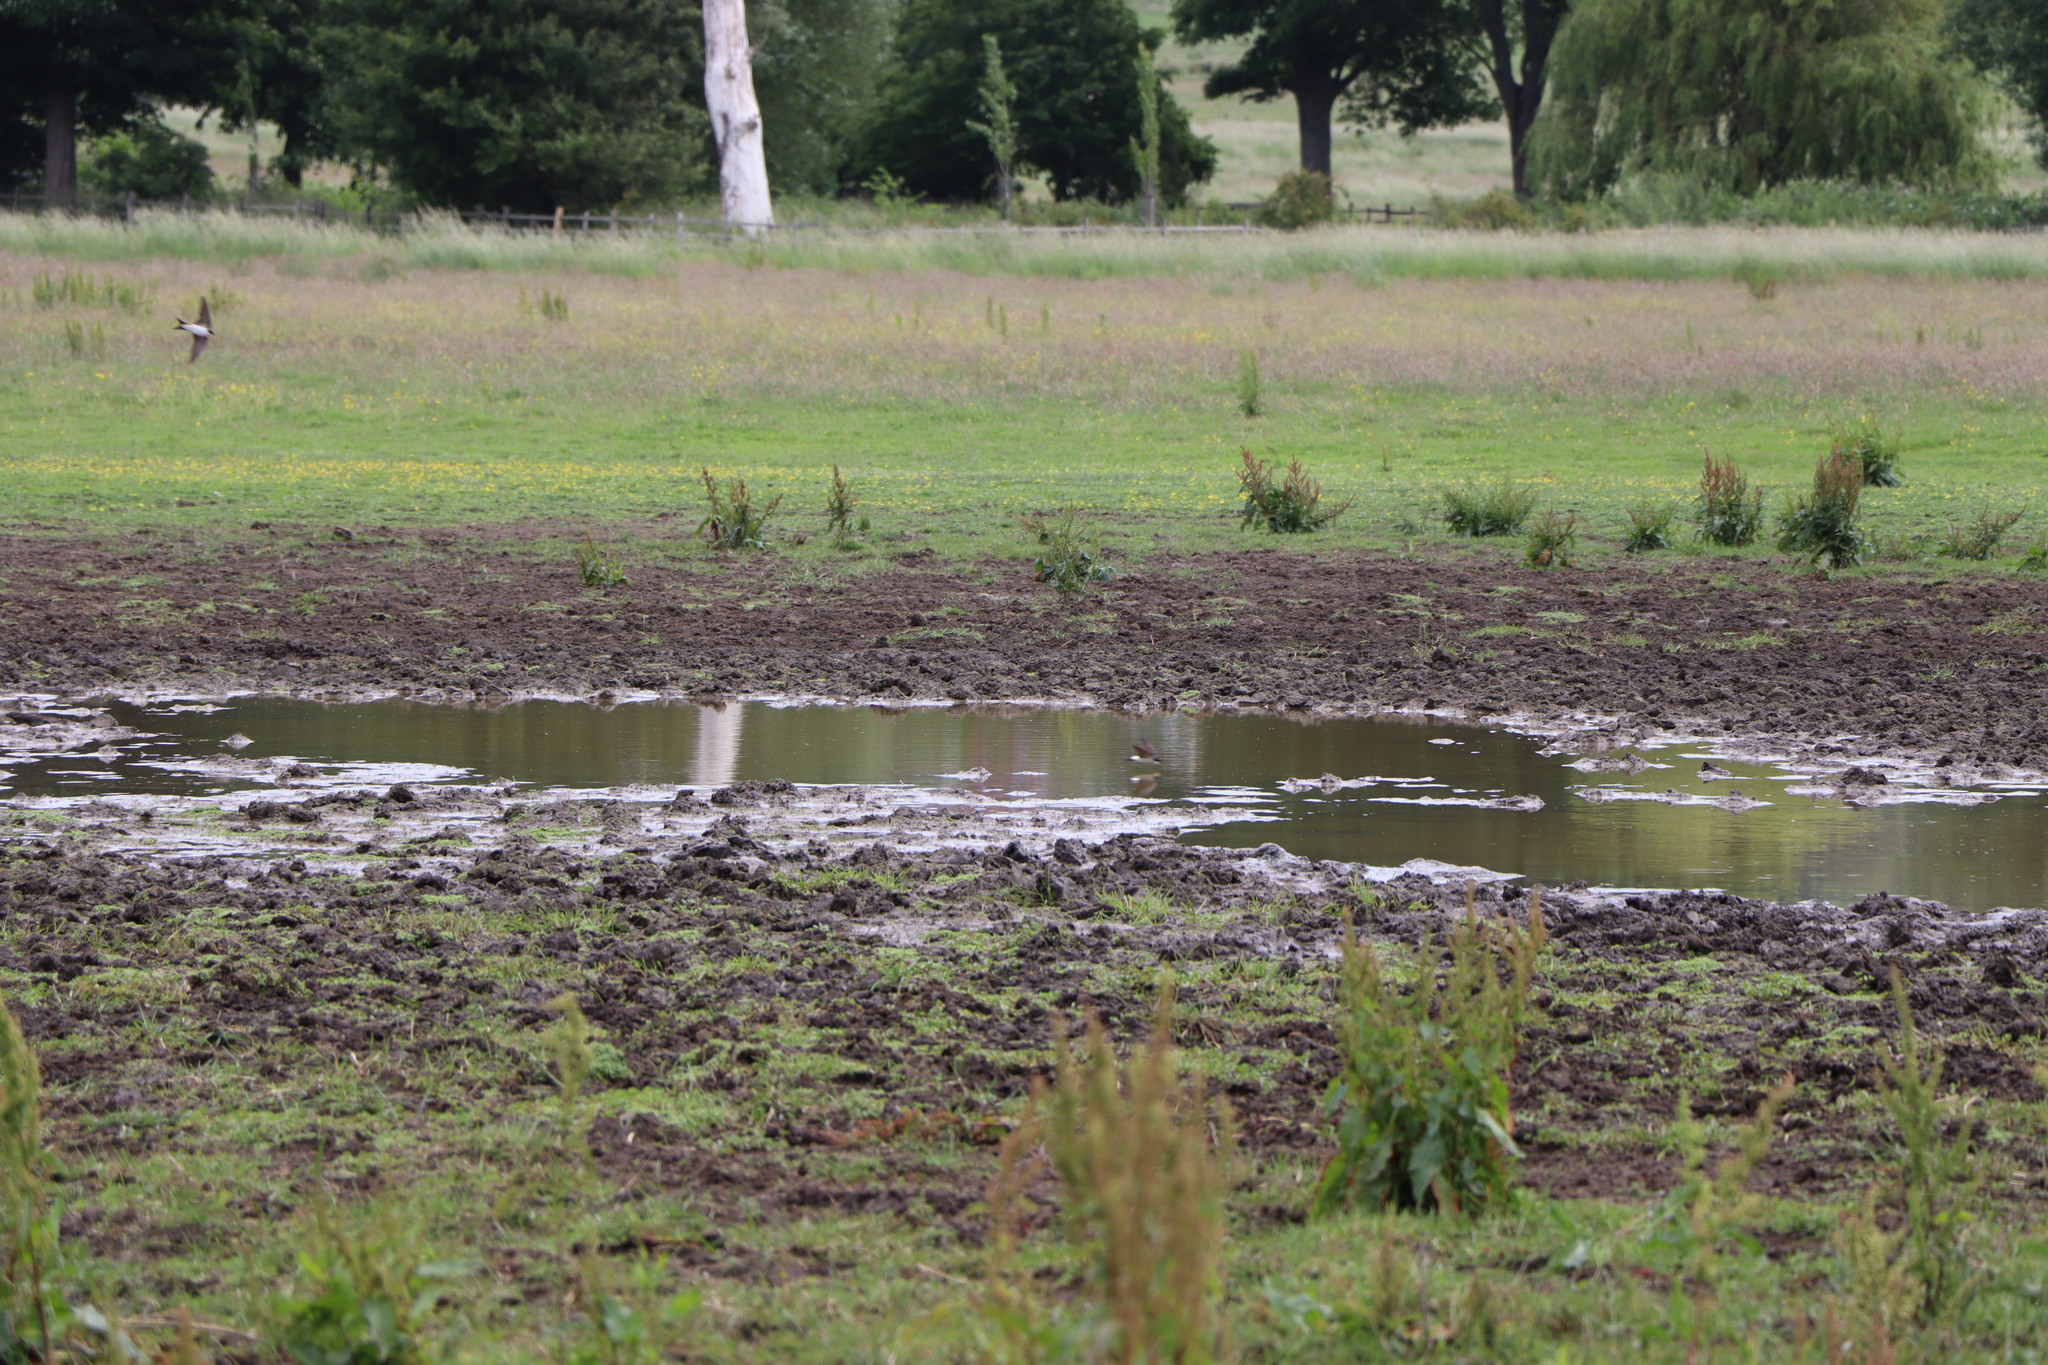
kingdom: Animalia
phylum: Chordata
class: Aves
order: Passeriformes
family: Hirundinidae
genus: Delichon
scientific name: Delichon urbicum
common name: Common house martin
